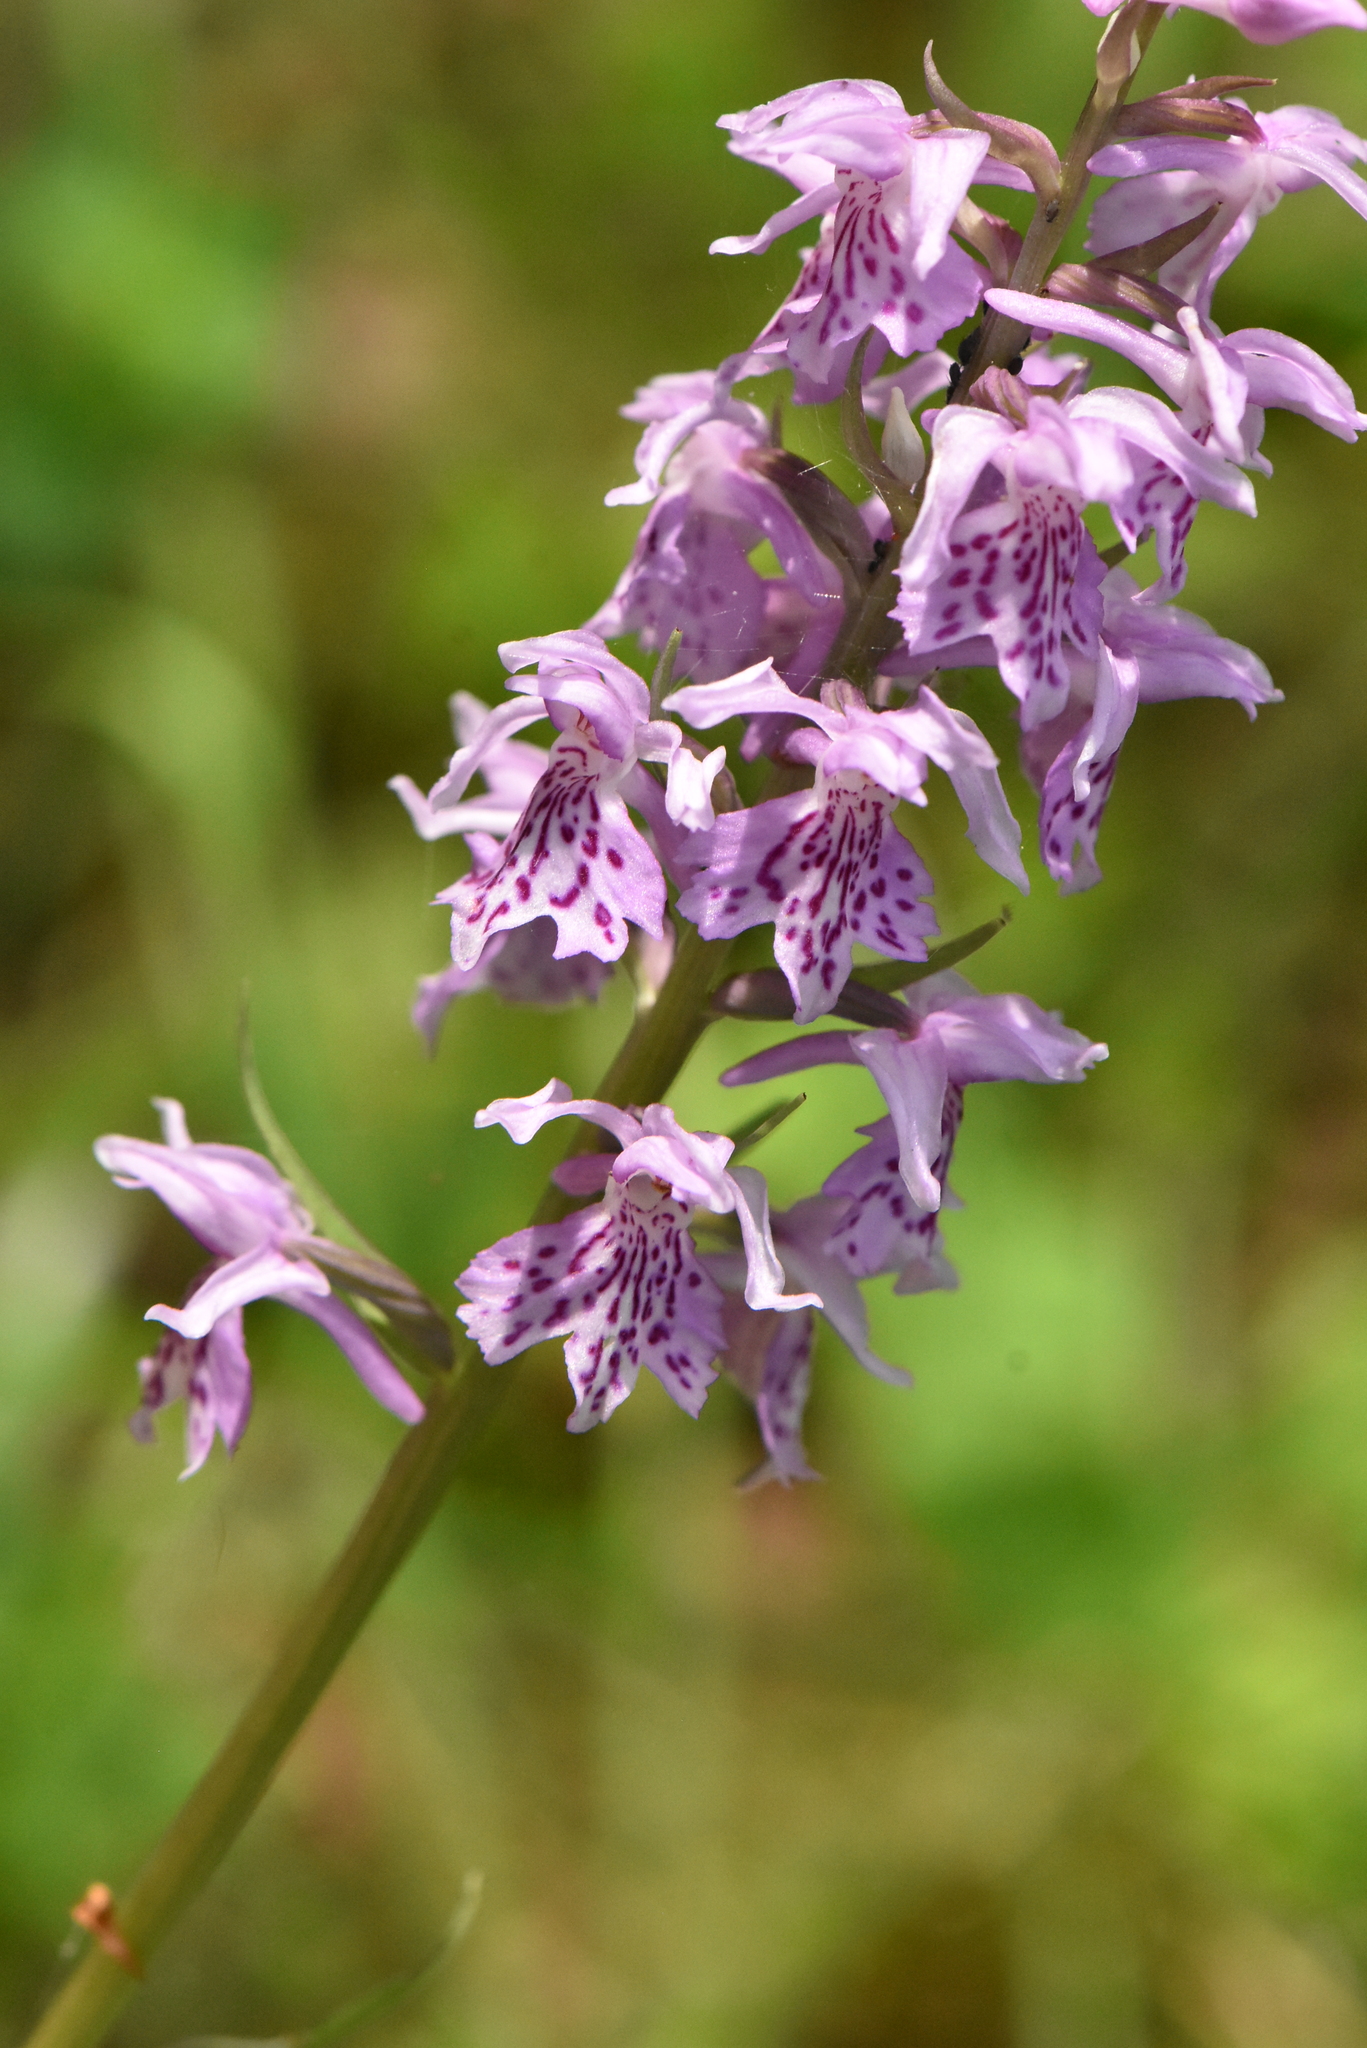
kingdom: Plantae
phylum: Tracheophyta
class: Liliopsida
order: Asparagales
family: Orchidaceae
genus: Dactylorhiza
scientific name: Dactylorhiza maculata
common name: Heath spotted-orchid
